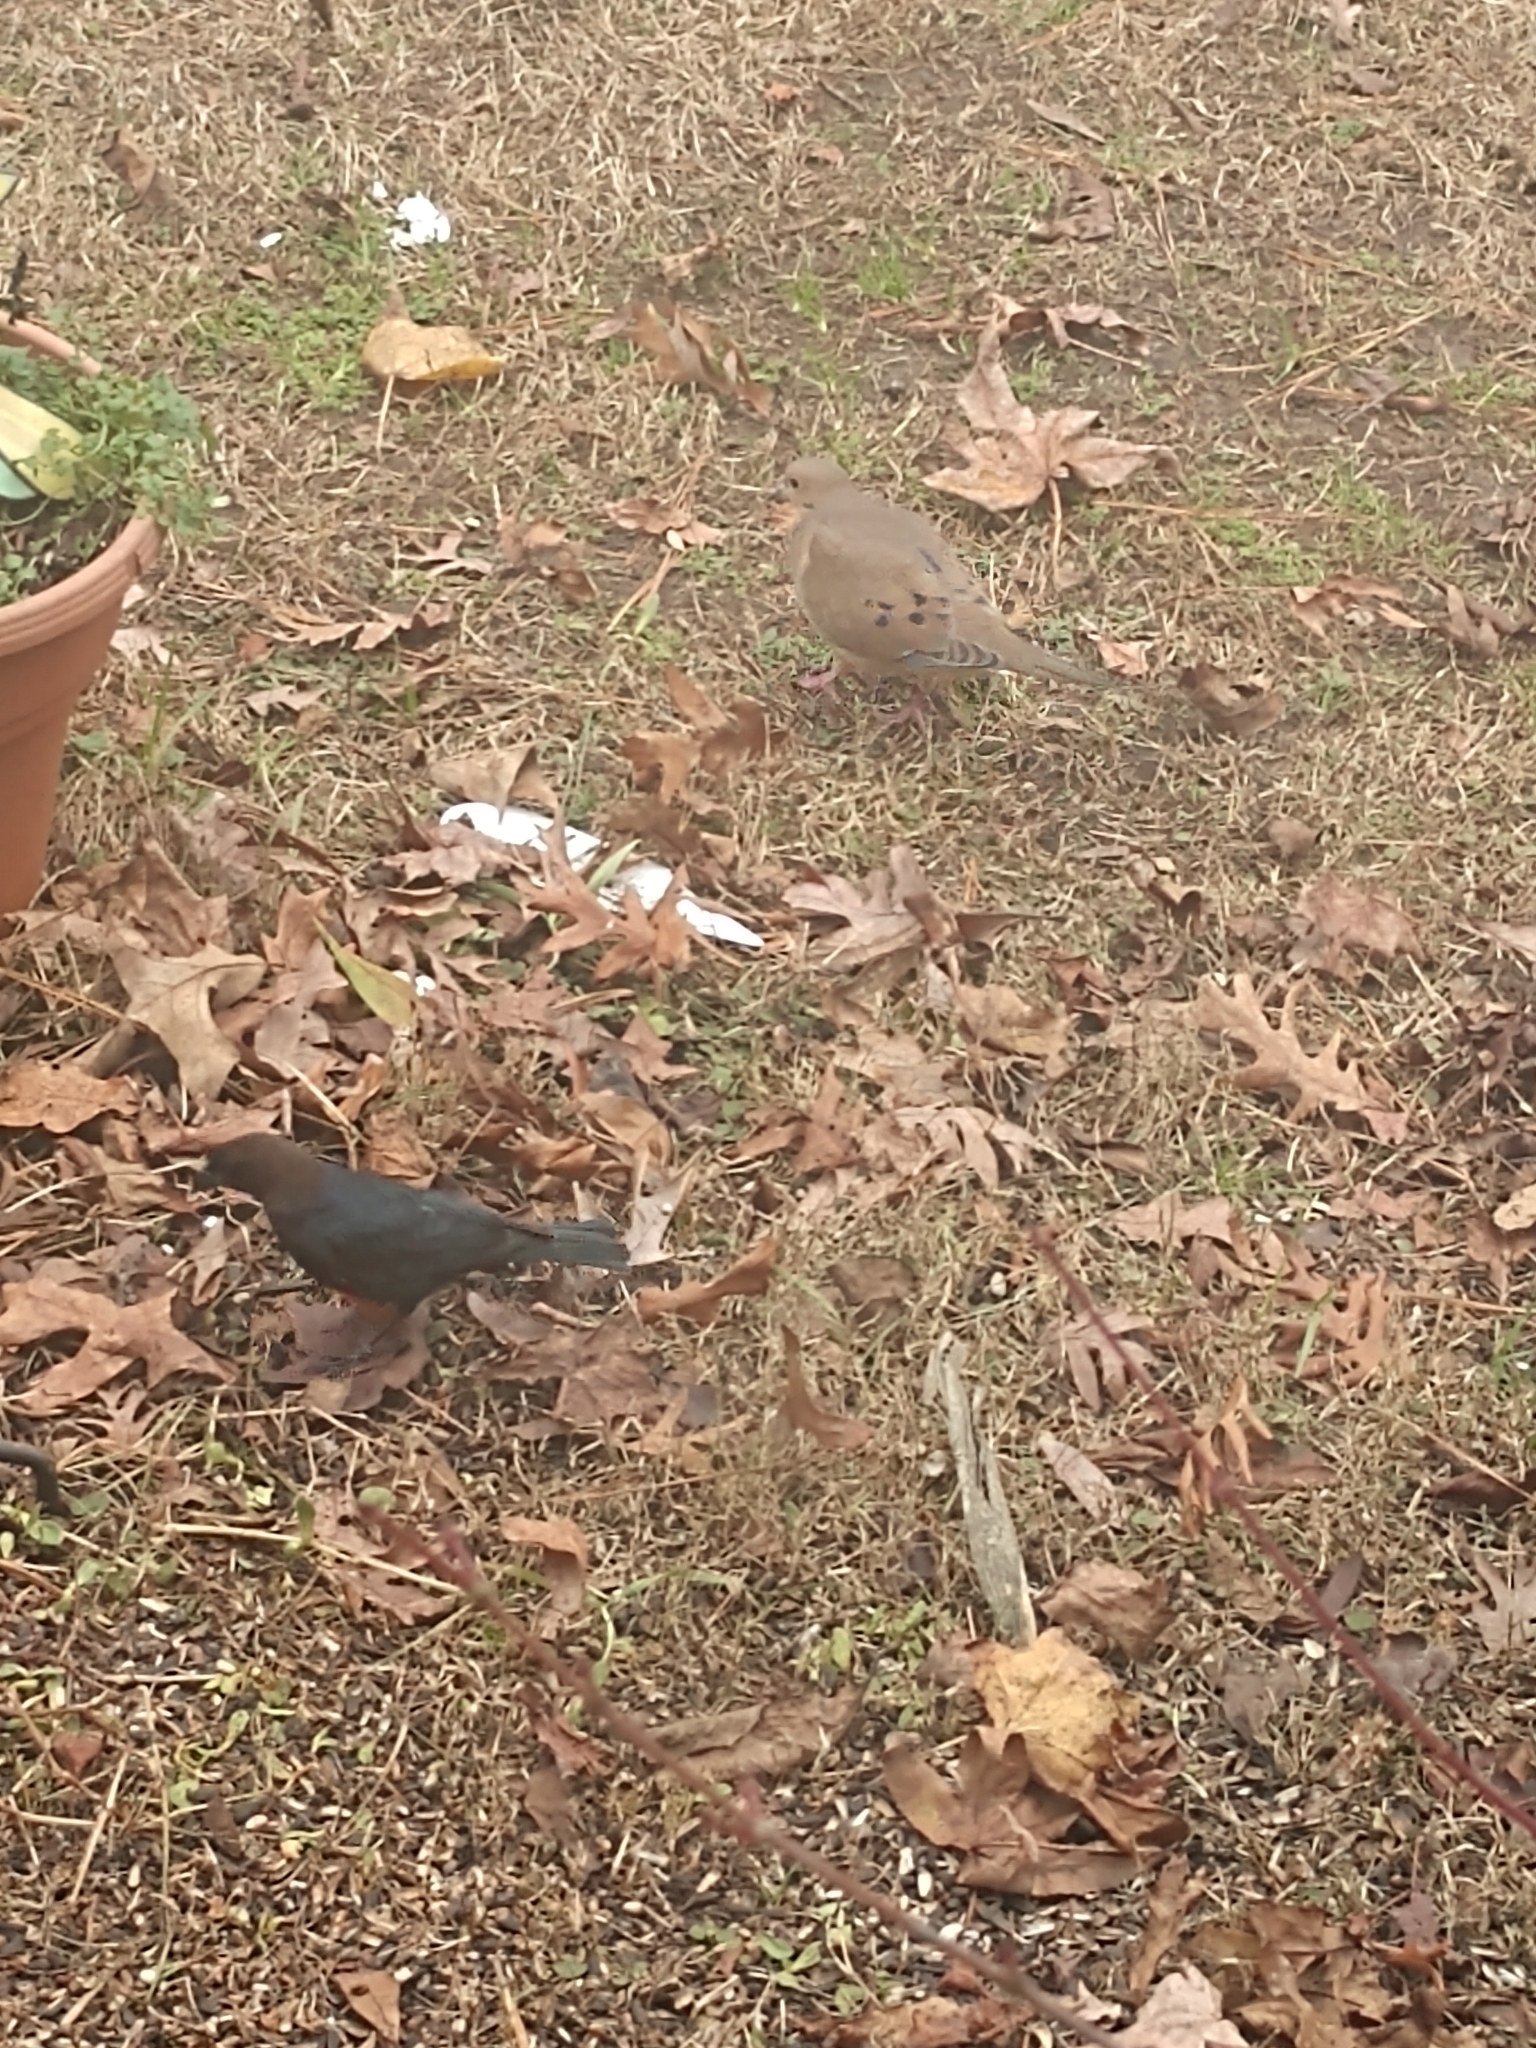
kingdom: Animalia
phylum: Chordata
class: Aves
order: Passeriformes
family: Icteridae
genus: Molothrus
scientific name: Molothrus ater
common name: Brown-headed cowbird
